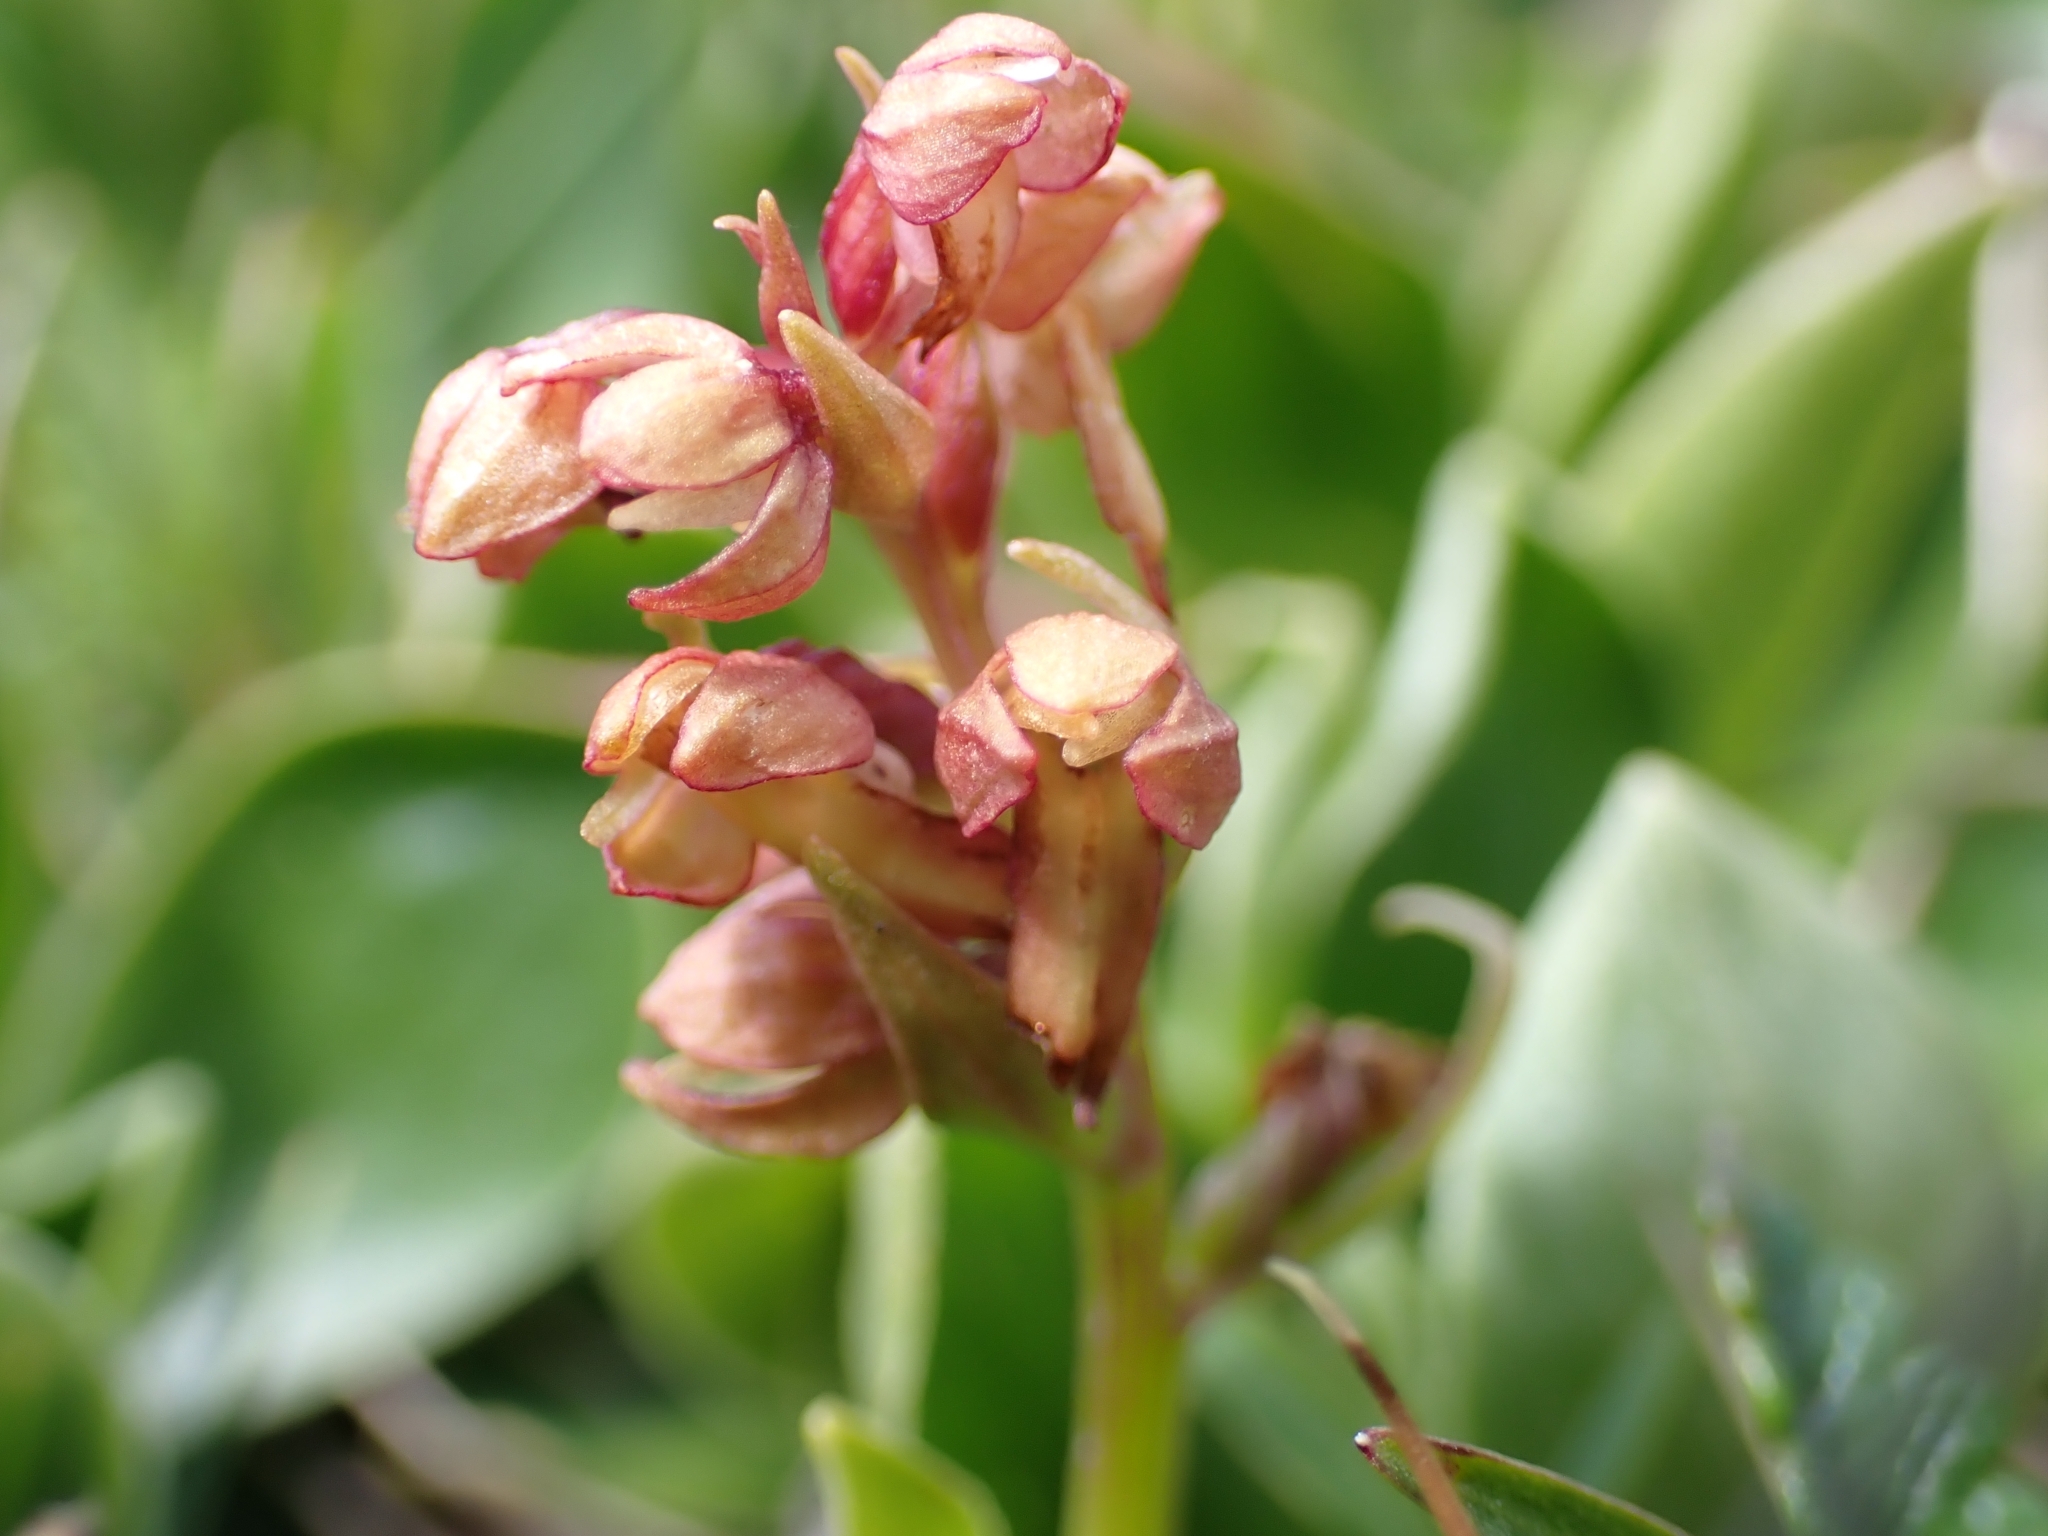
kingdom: Plantae
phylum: Tracheophyta
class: Liliopsida
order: Asparagales
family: Orchidaceae
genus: Dactylorhiza
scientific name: Dactylorhiza viridis
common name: Longbract frog orchid
